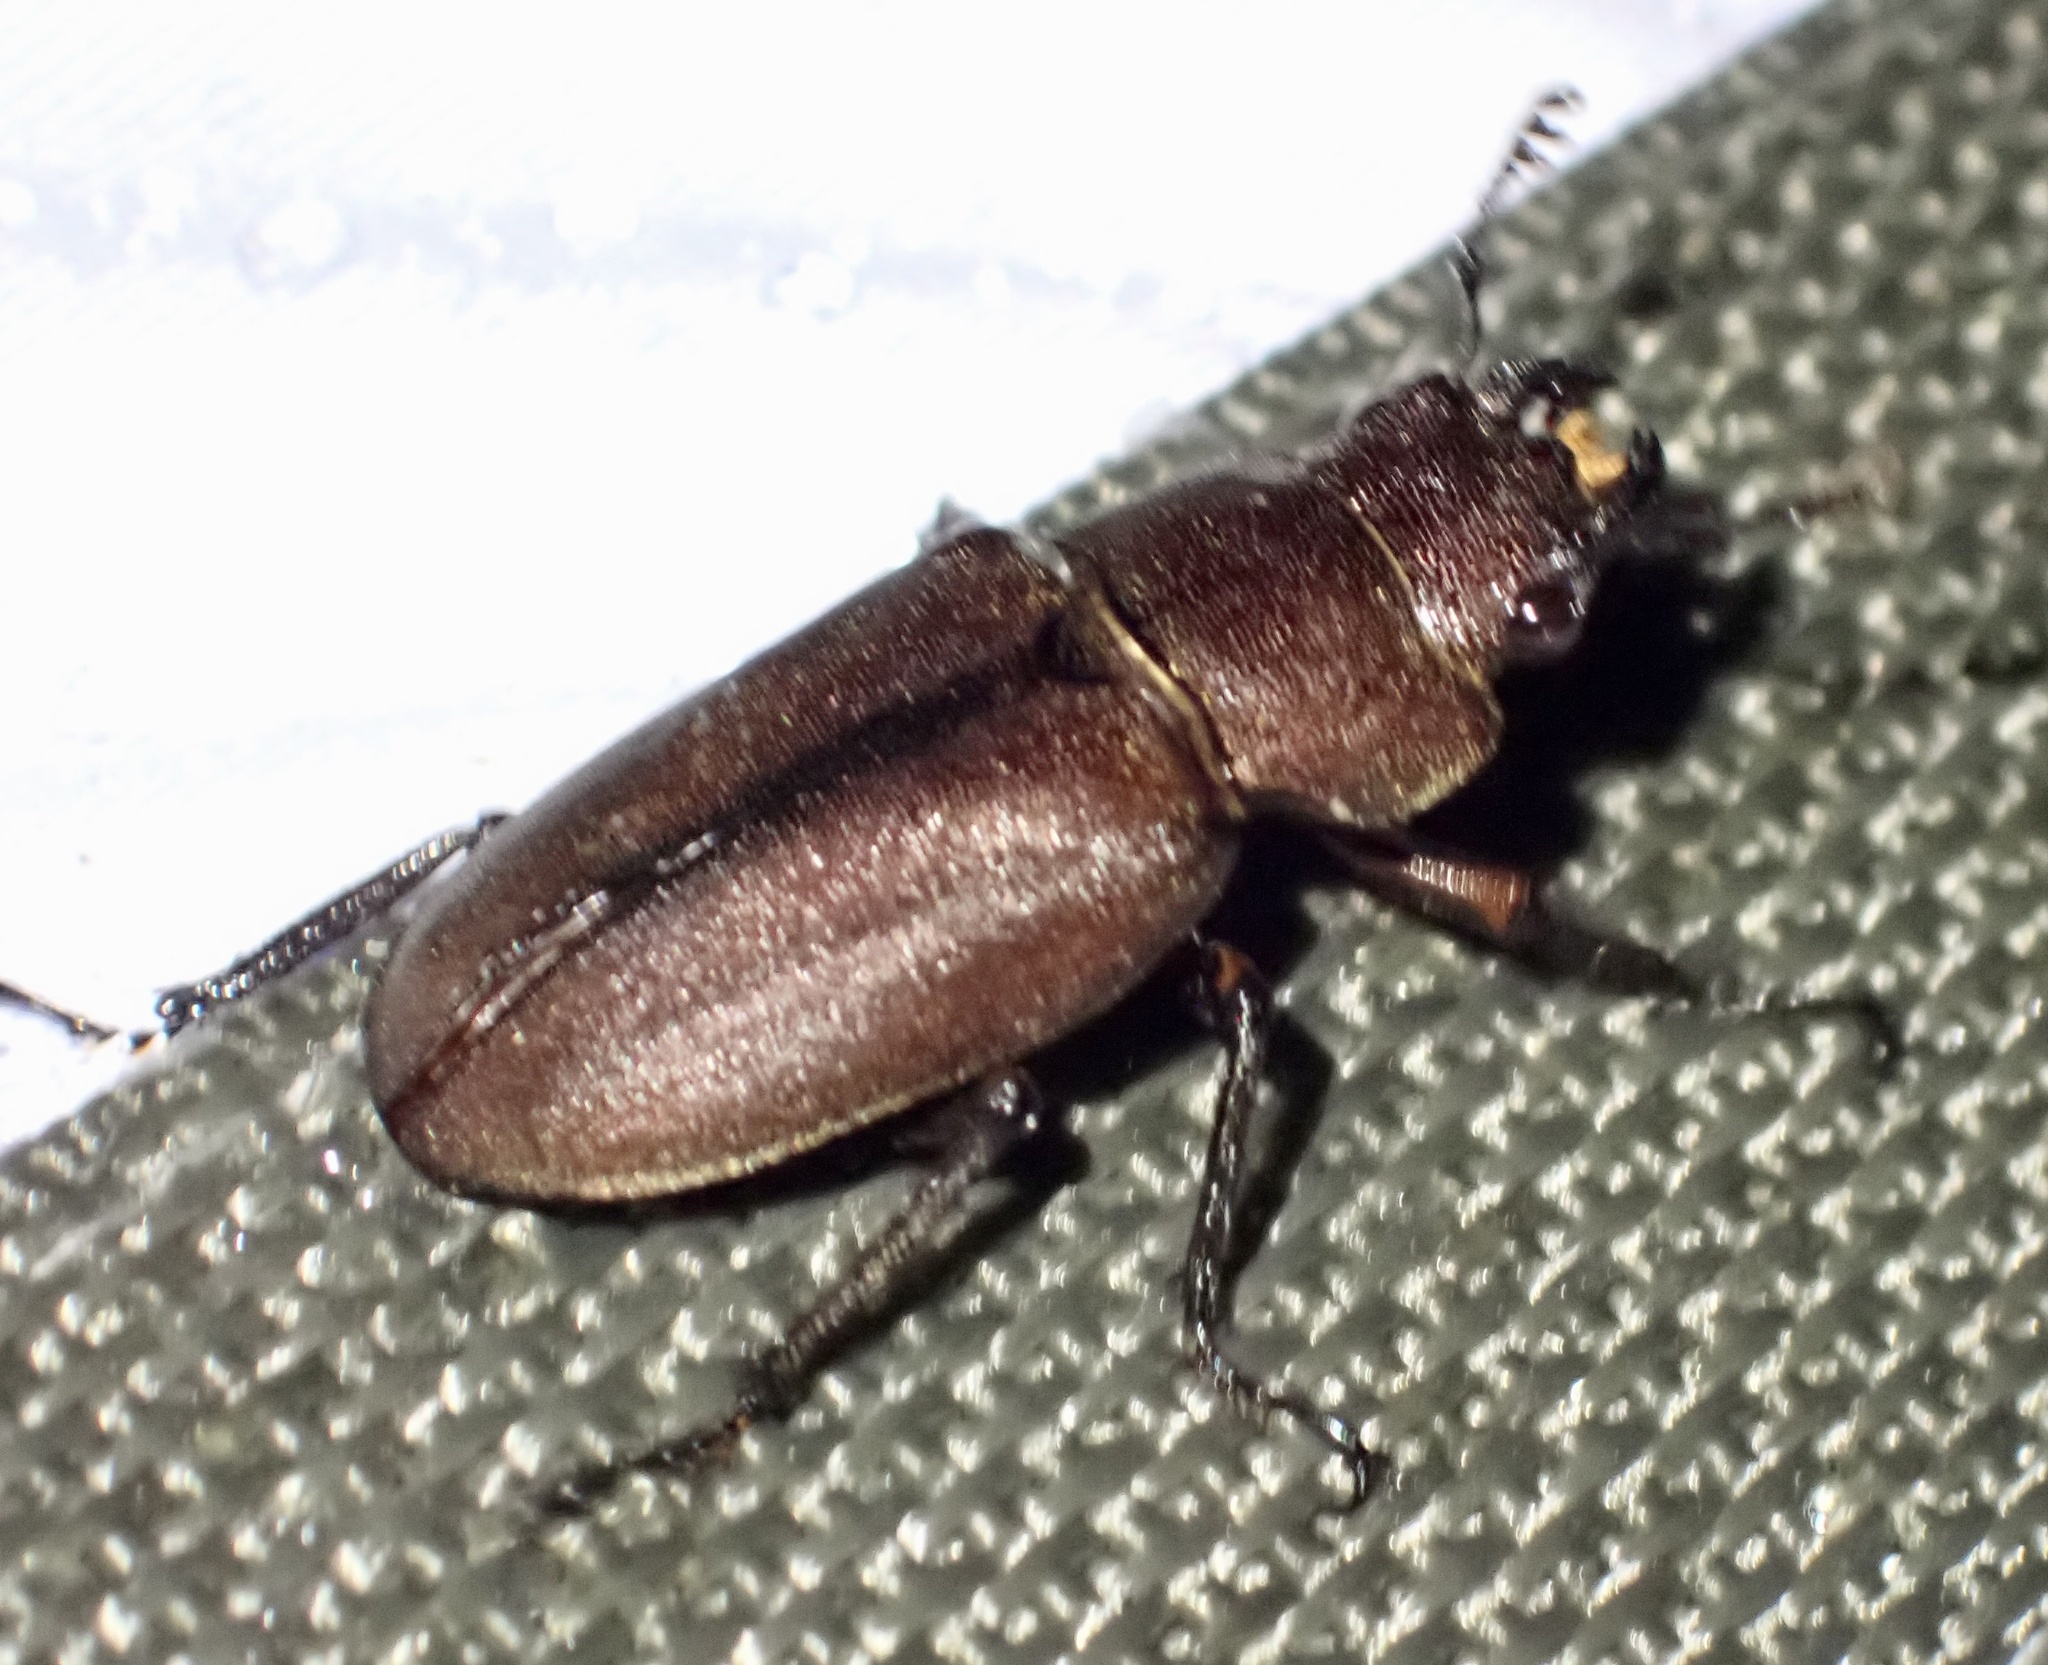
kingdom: Animalia
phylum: Arthropoda
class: Insecta
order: Coleoptera
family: Lucanidae
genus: Cyclommatus
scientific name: Cyclommatus kaupi
